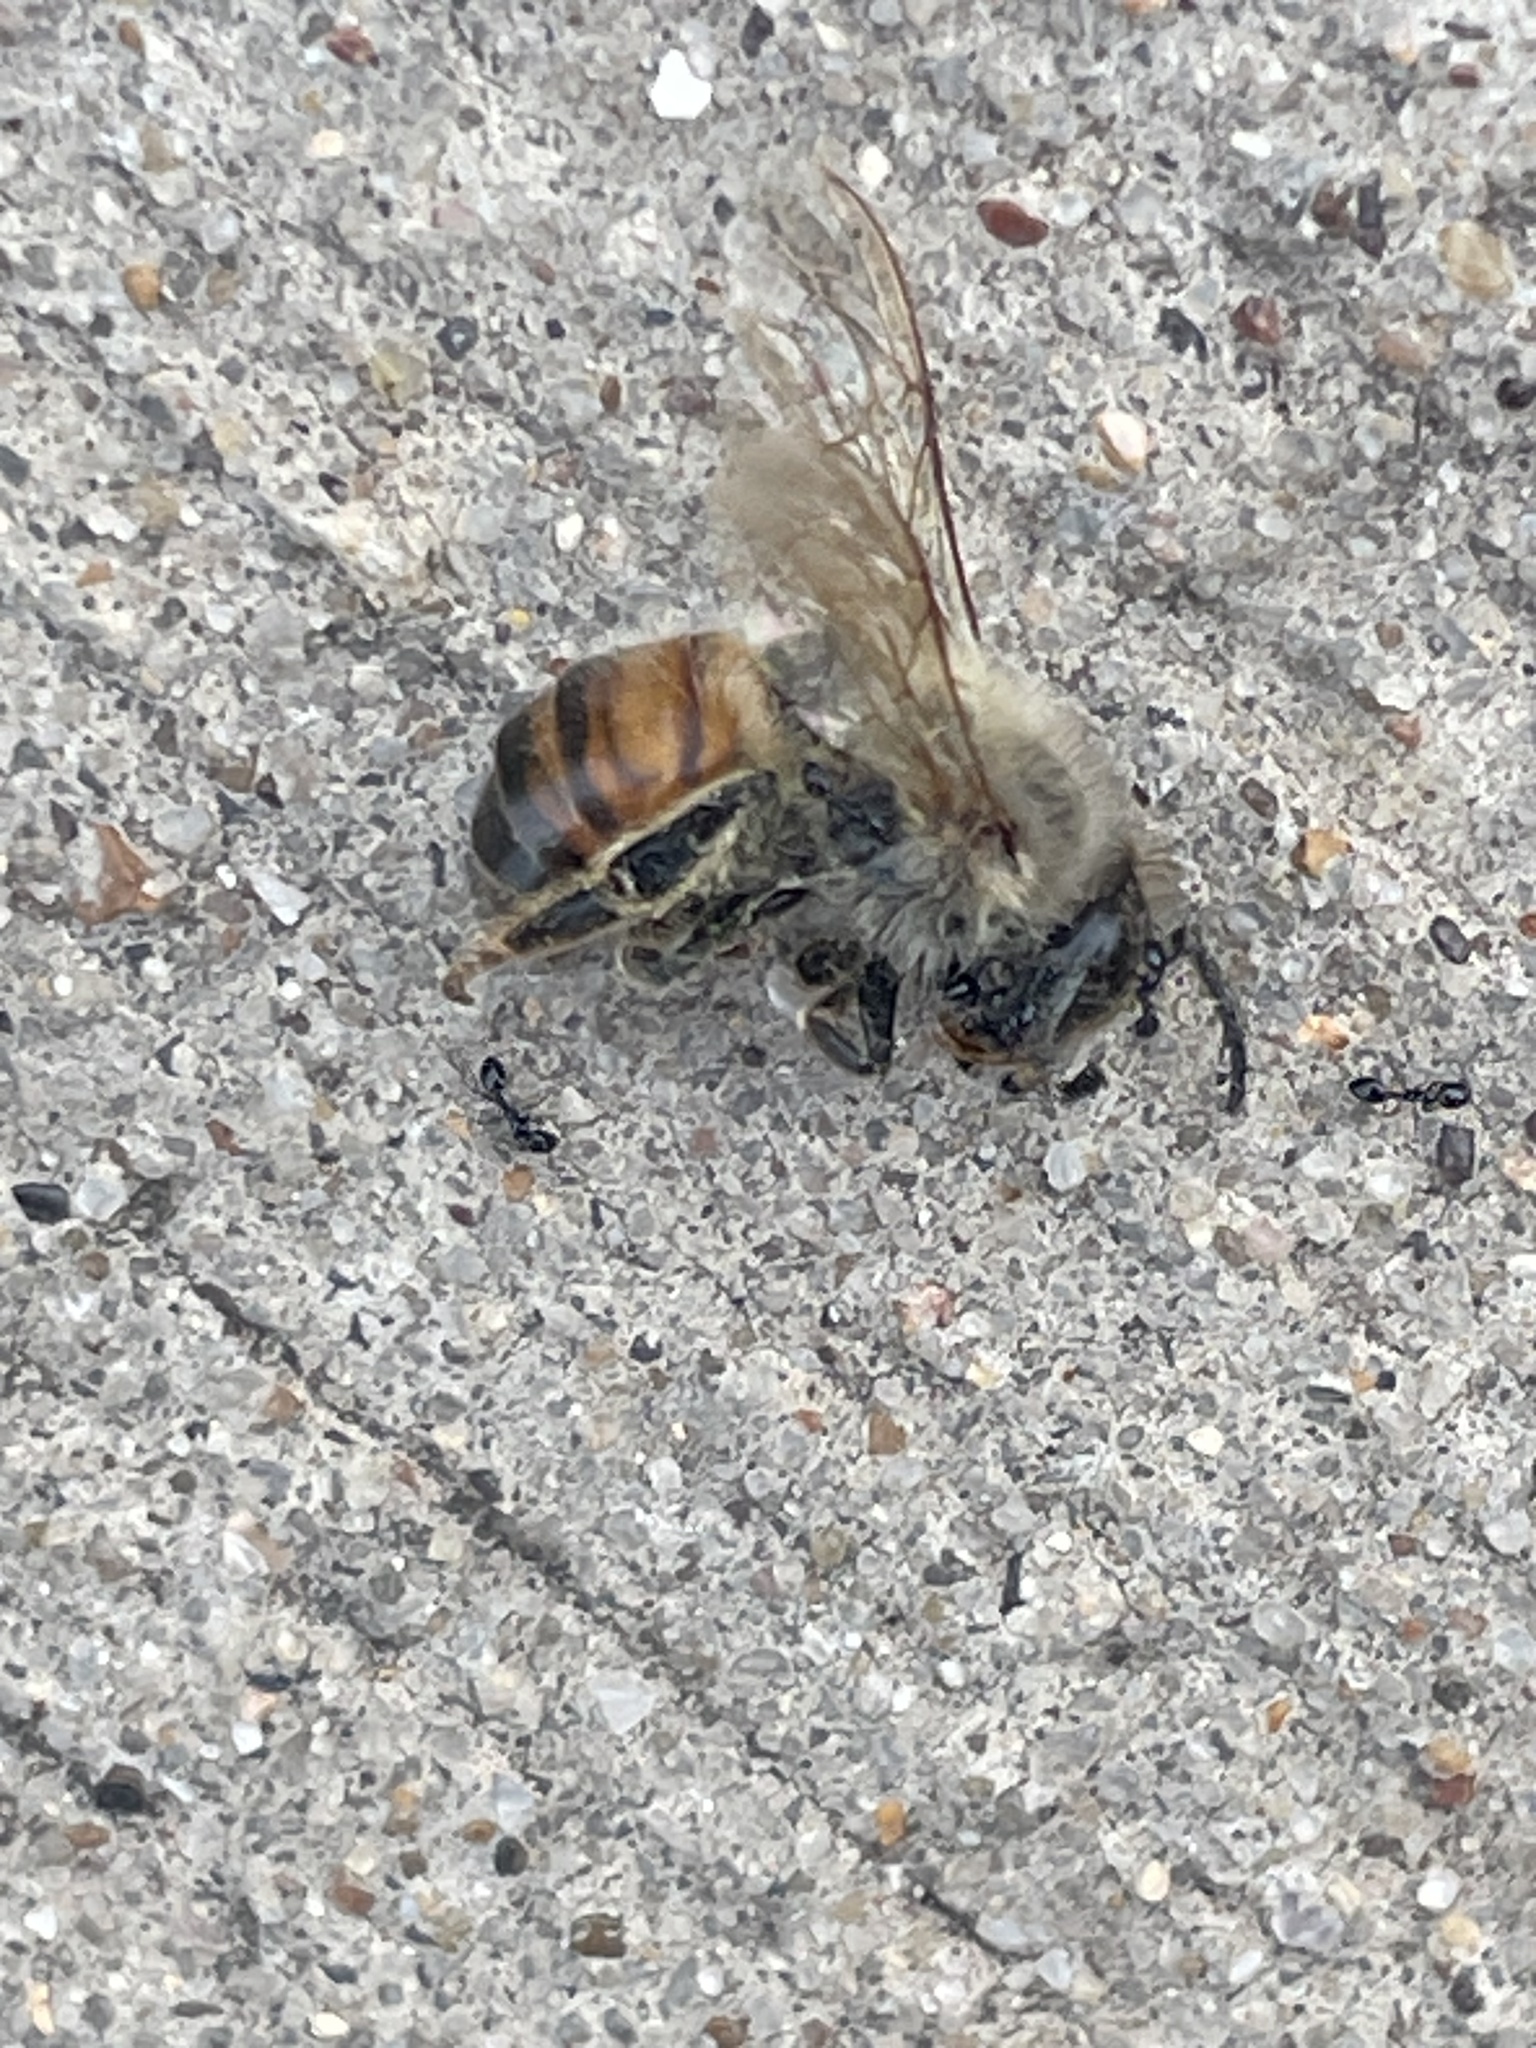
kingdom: Animalia
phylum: Arthropoda
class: Insecta
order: Hymenoptera
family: Apidae
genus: Apis
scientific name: Apis mellifera
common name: Honey bee
